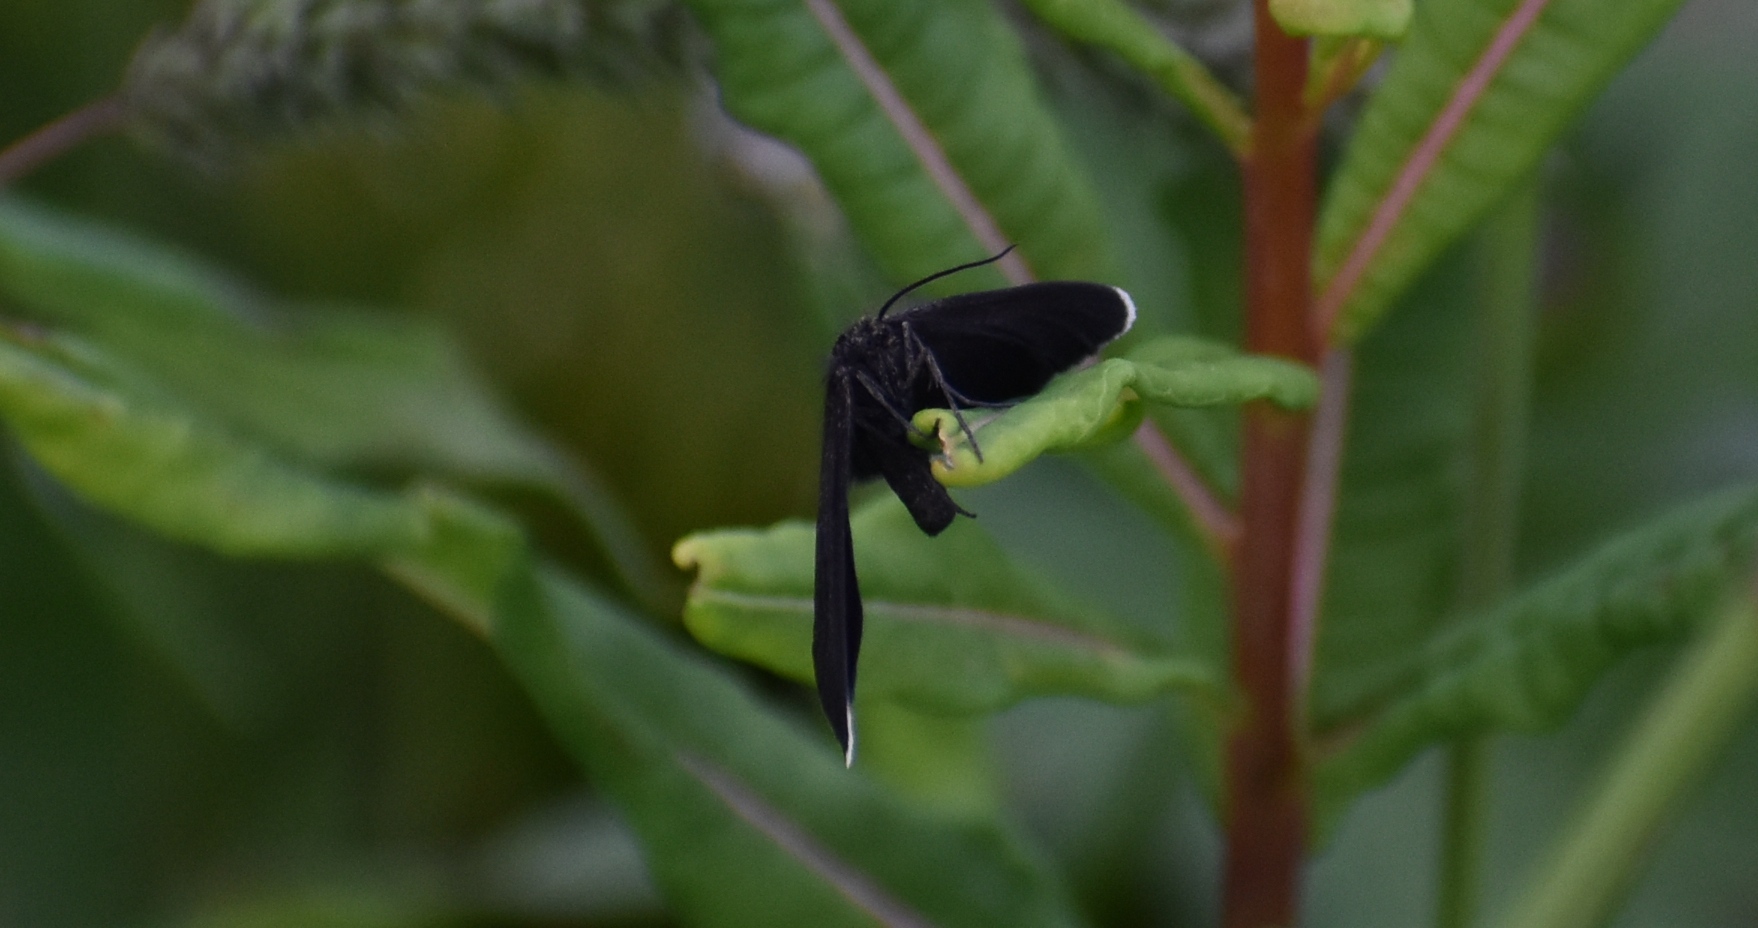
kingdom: Animalia
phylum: Arthropoda
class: Insecta
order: Lepidoptera
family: Geometridae
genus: Odezia
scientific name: Odezia atrata
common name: Chimney sweeper
